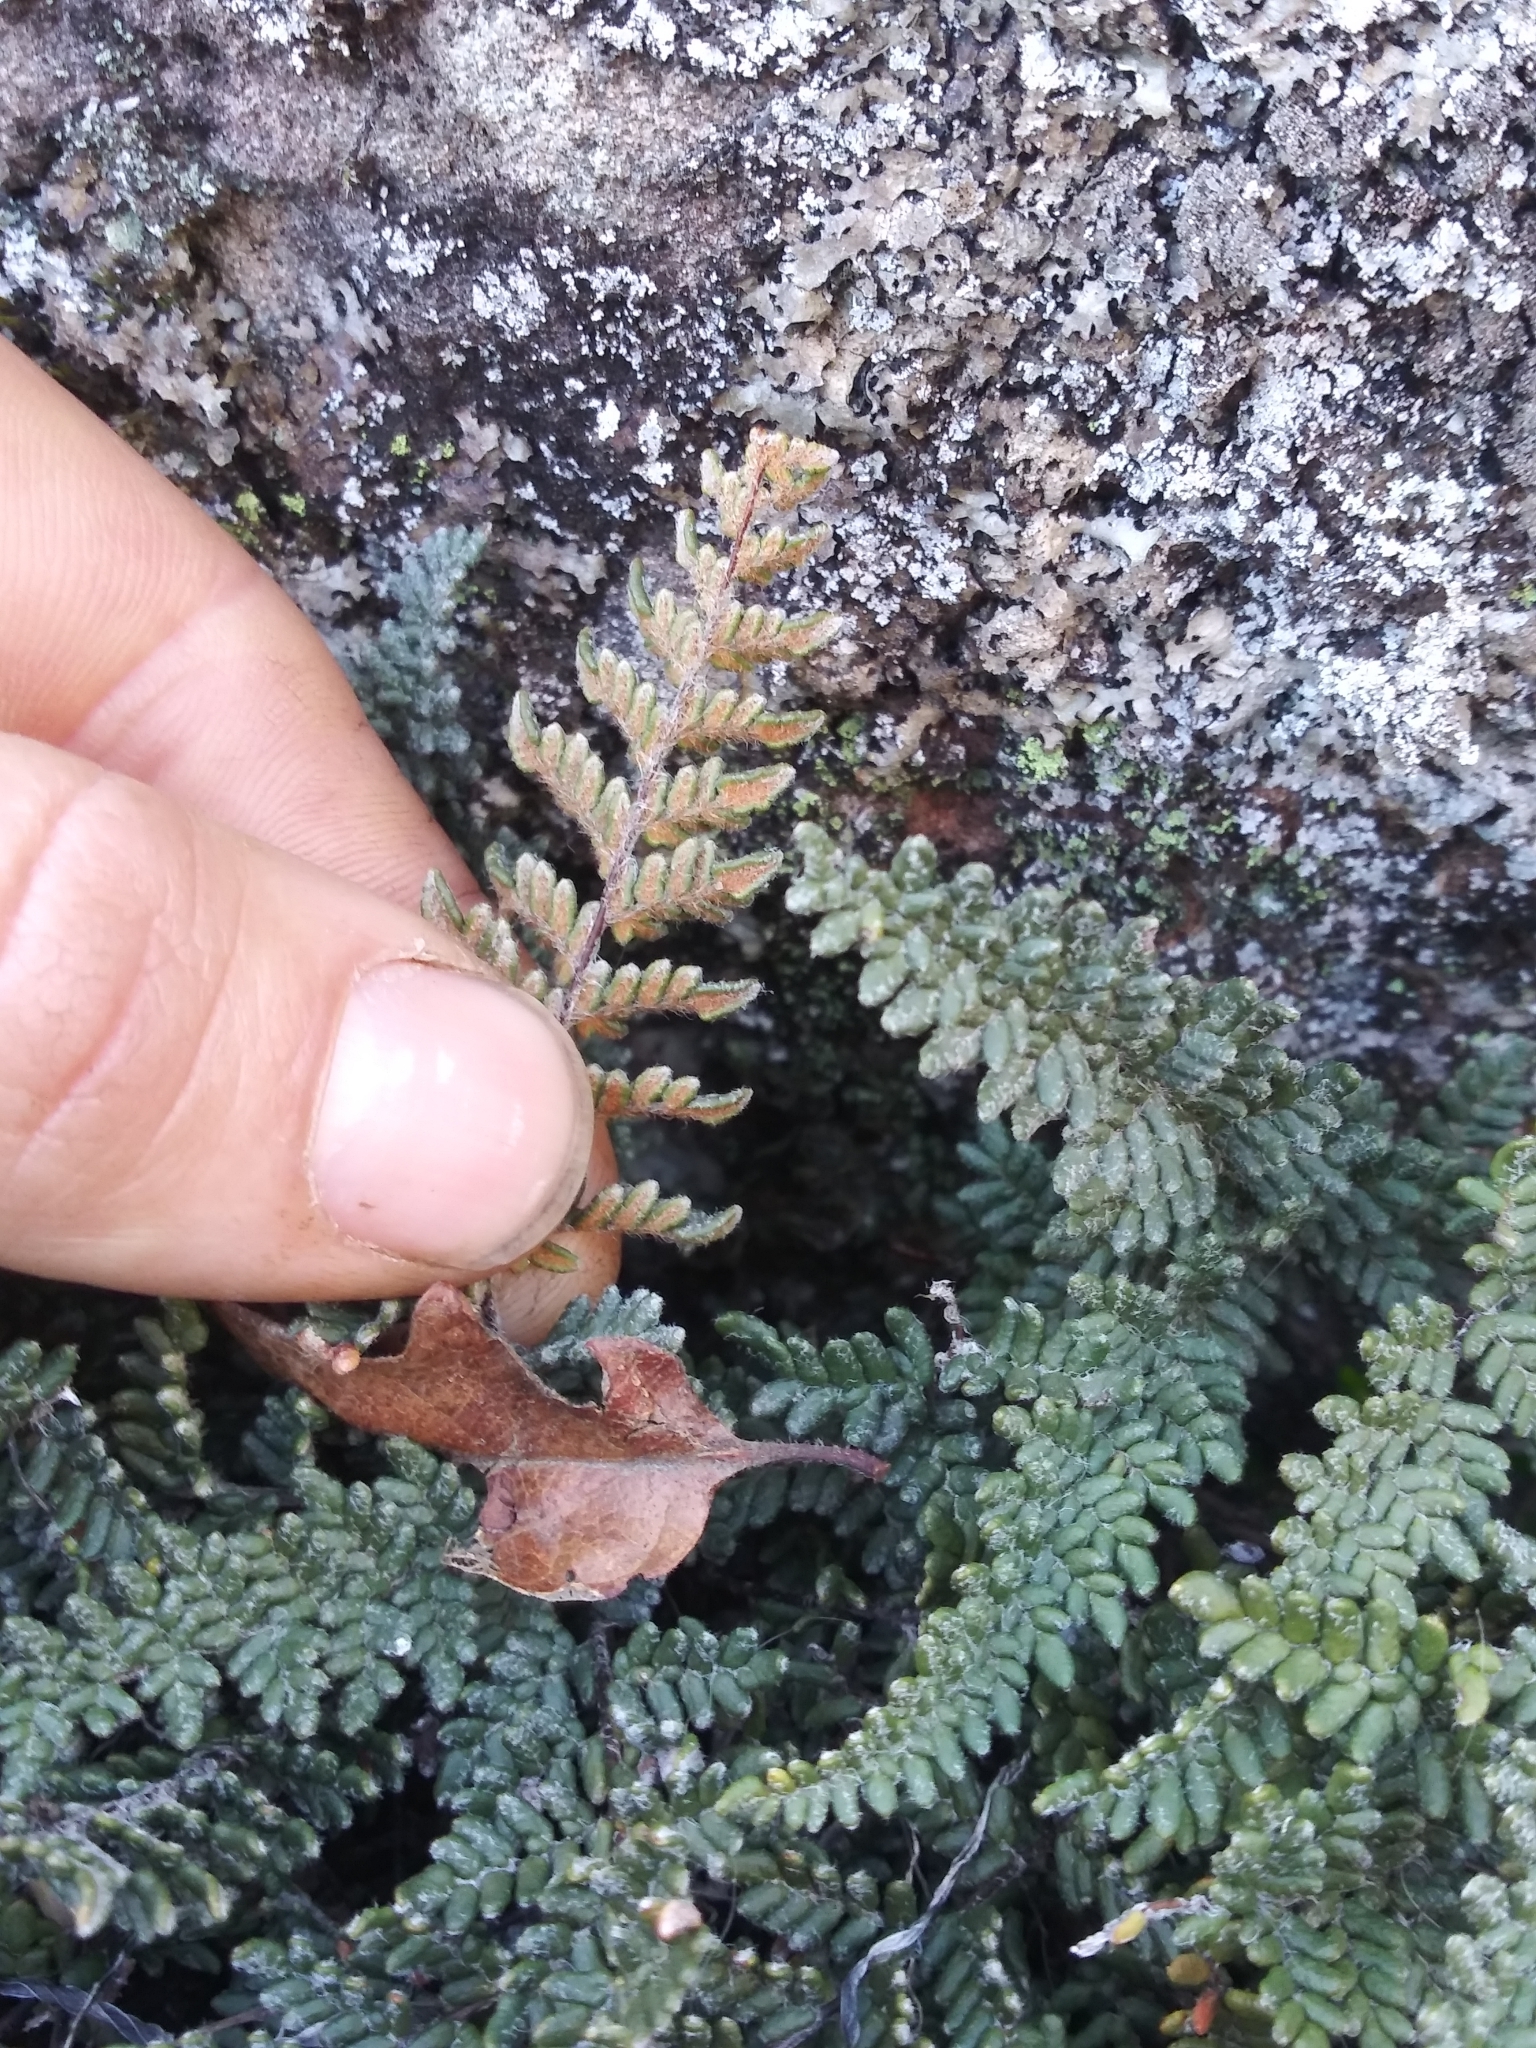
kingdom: Plantae
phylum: Tracheophyta
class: Polypodiopsida
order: Polypodiales
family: Pteridaceae
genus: Myriopteris
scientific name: Myriopteris gracillima
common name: Lace fern
